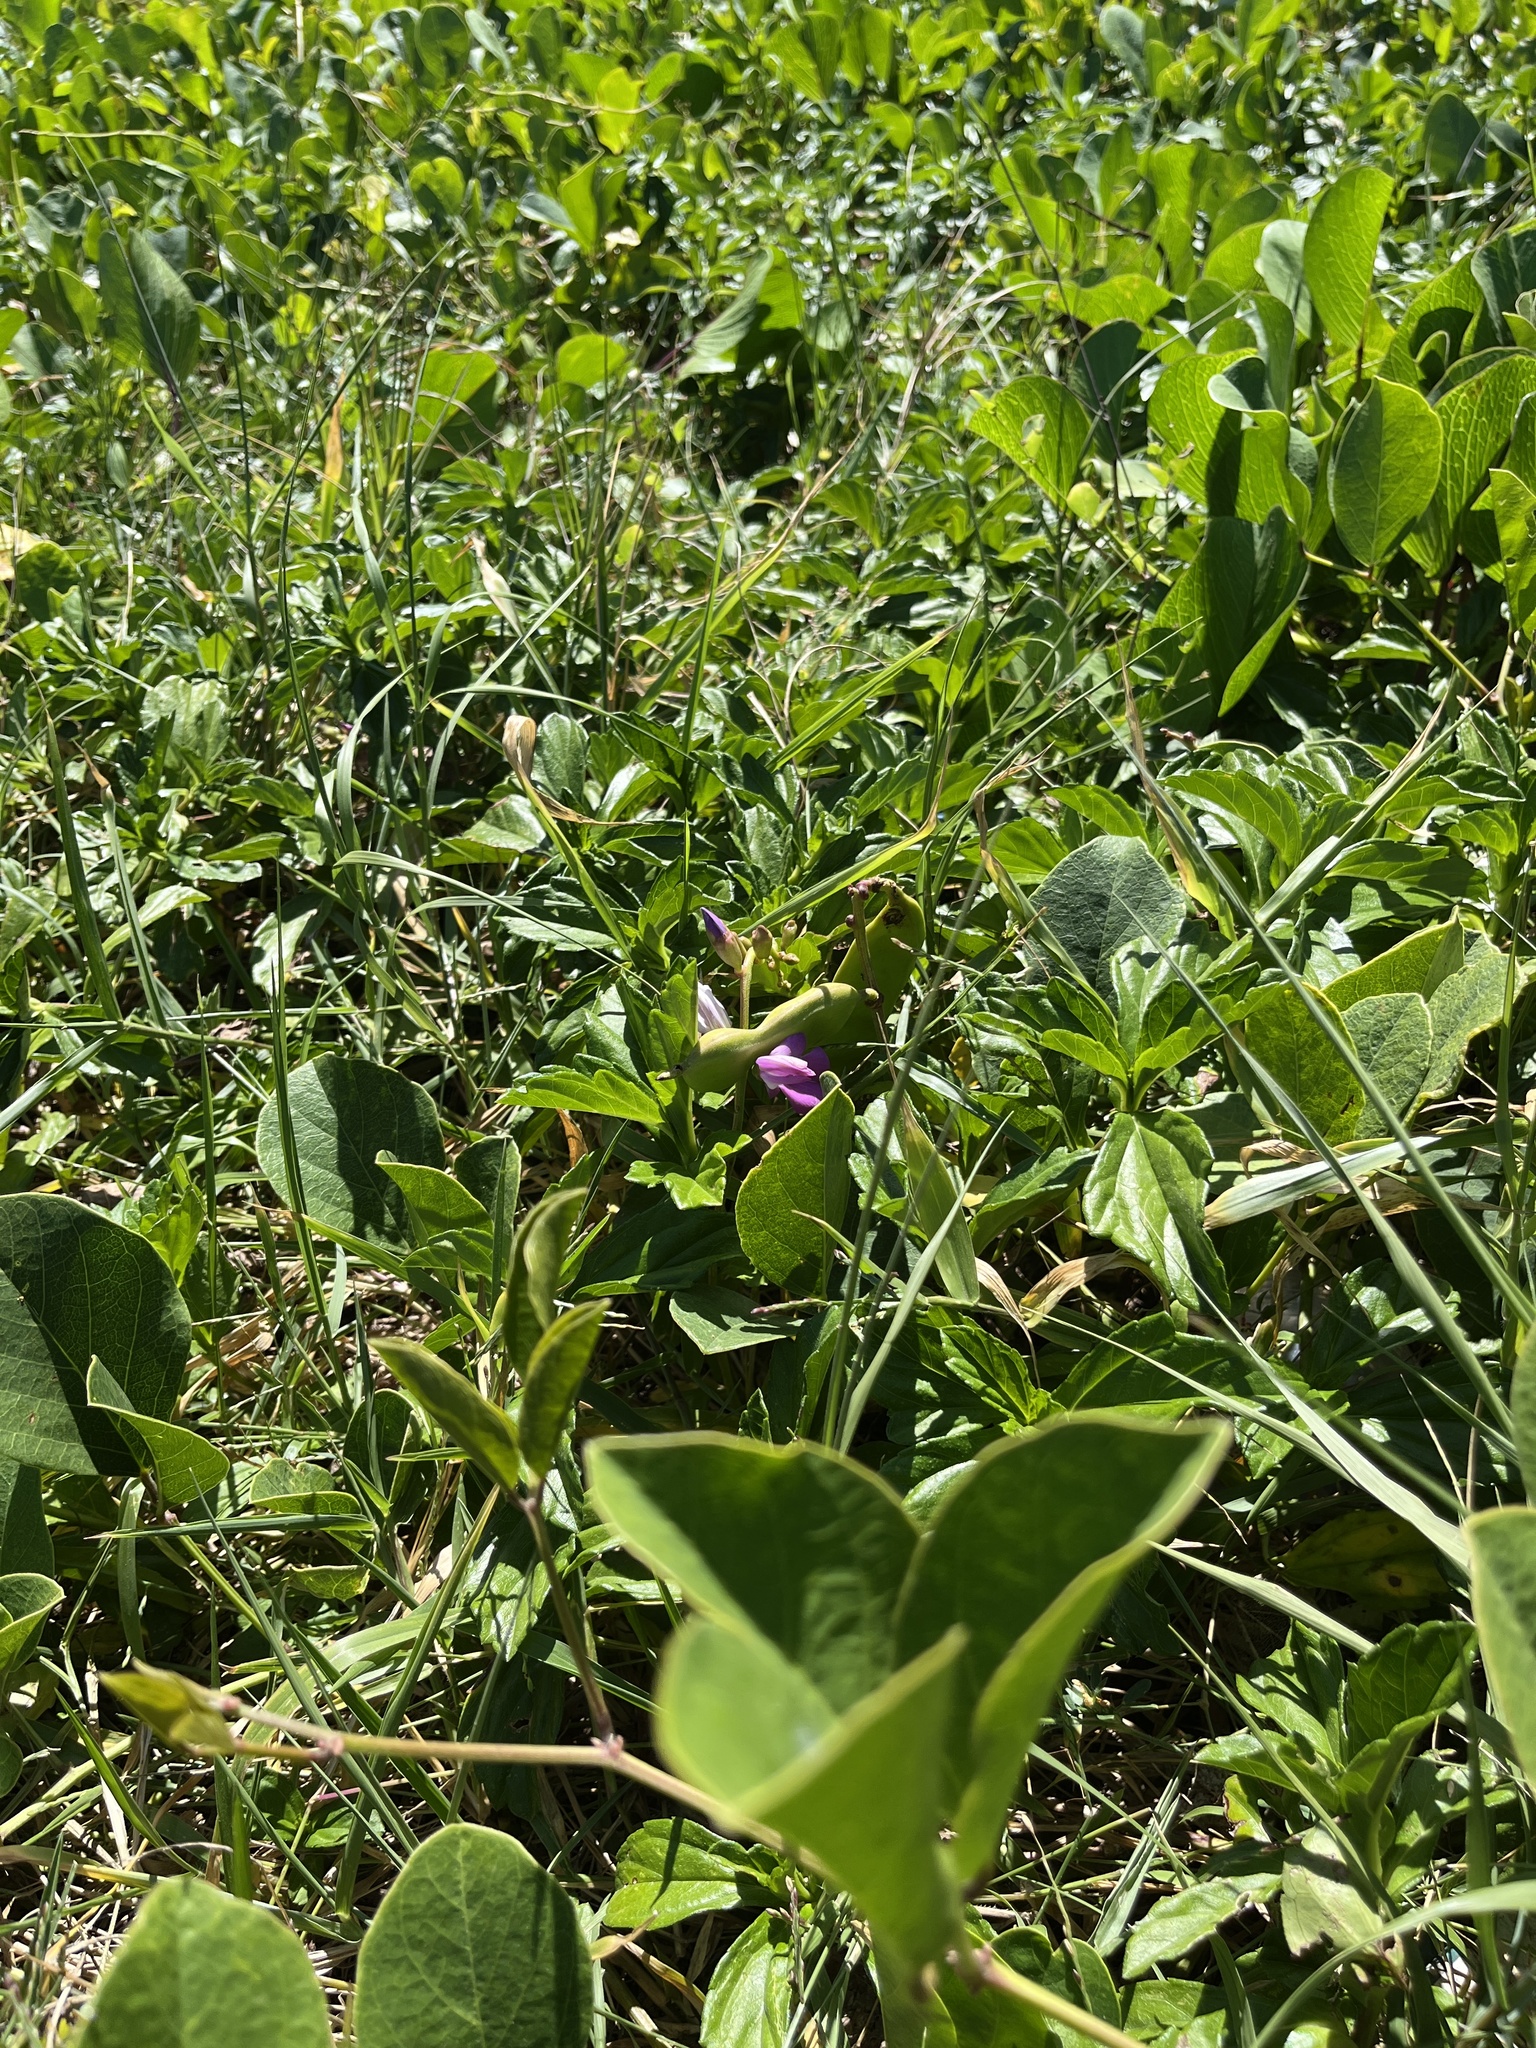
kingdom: Plantae
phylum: Tracheophyta
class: Magnoliopsida
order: Fabales
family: Fabaceae
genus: Canavalia
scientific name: Canavalia rosea
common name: Beach-bean
